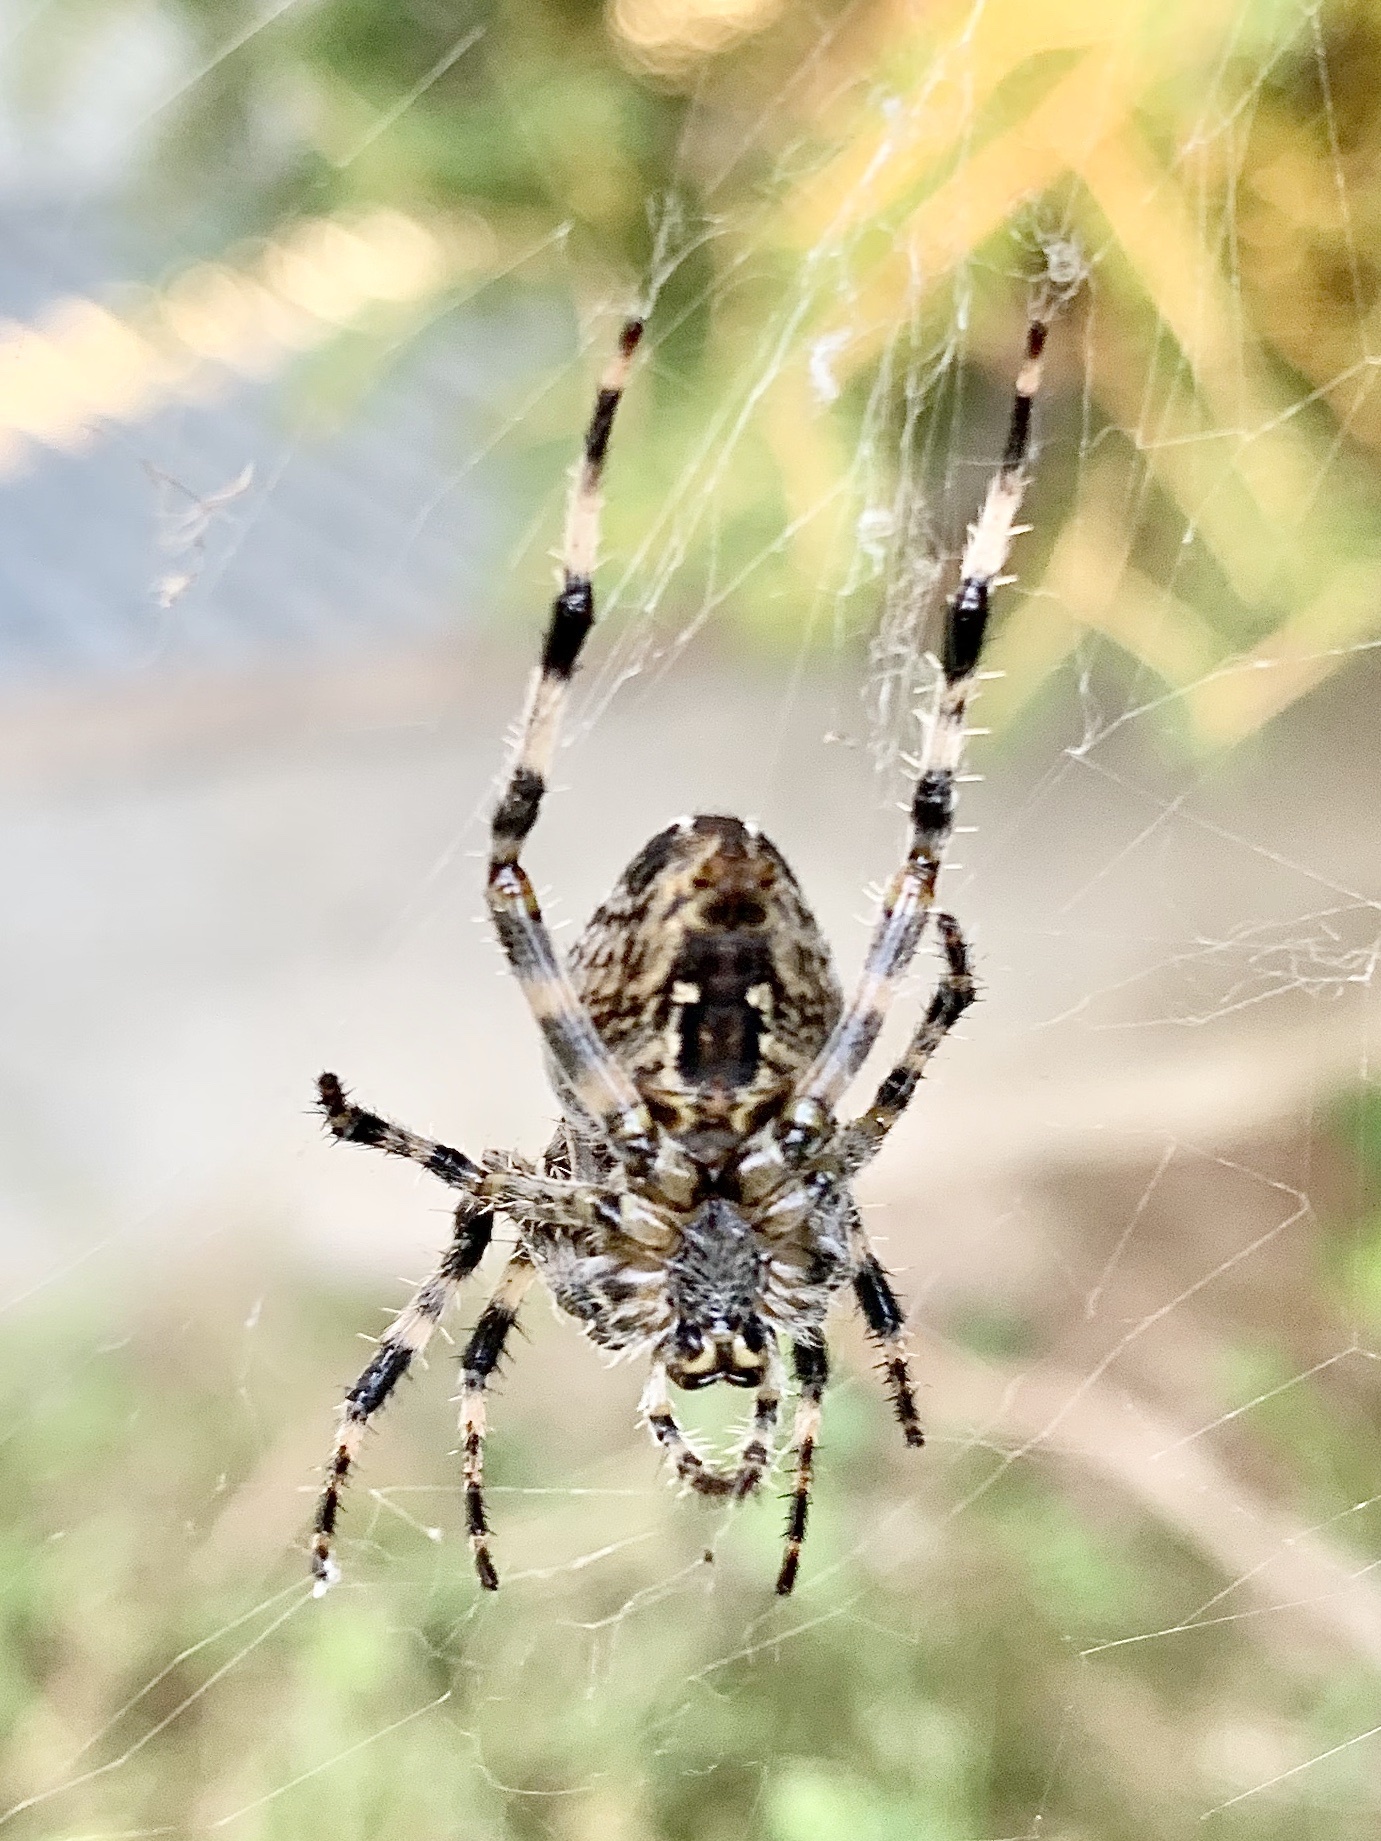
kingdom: Animalia
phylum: Arthropoda
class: Arachnida
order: Araneae
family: Araneidae
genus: Araneus
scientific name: Araneus diadematus
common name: Cross orbweaver
